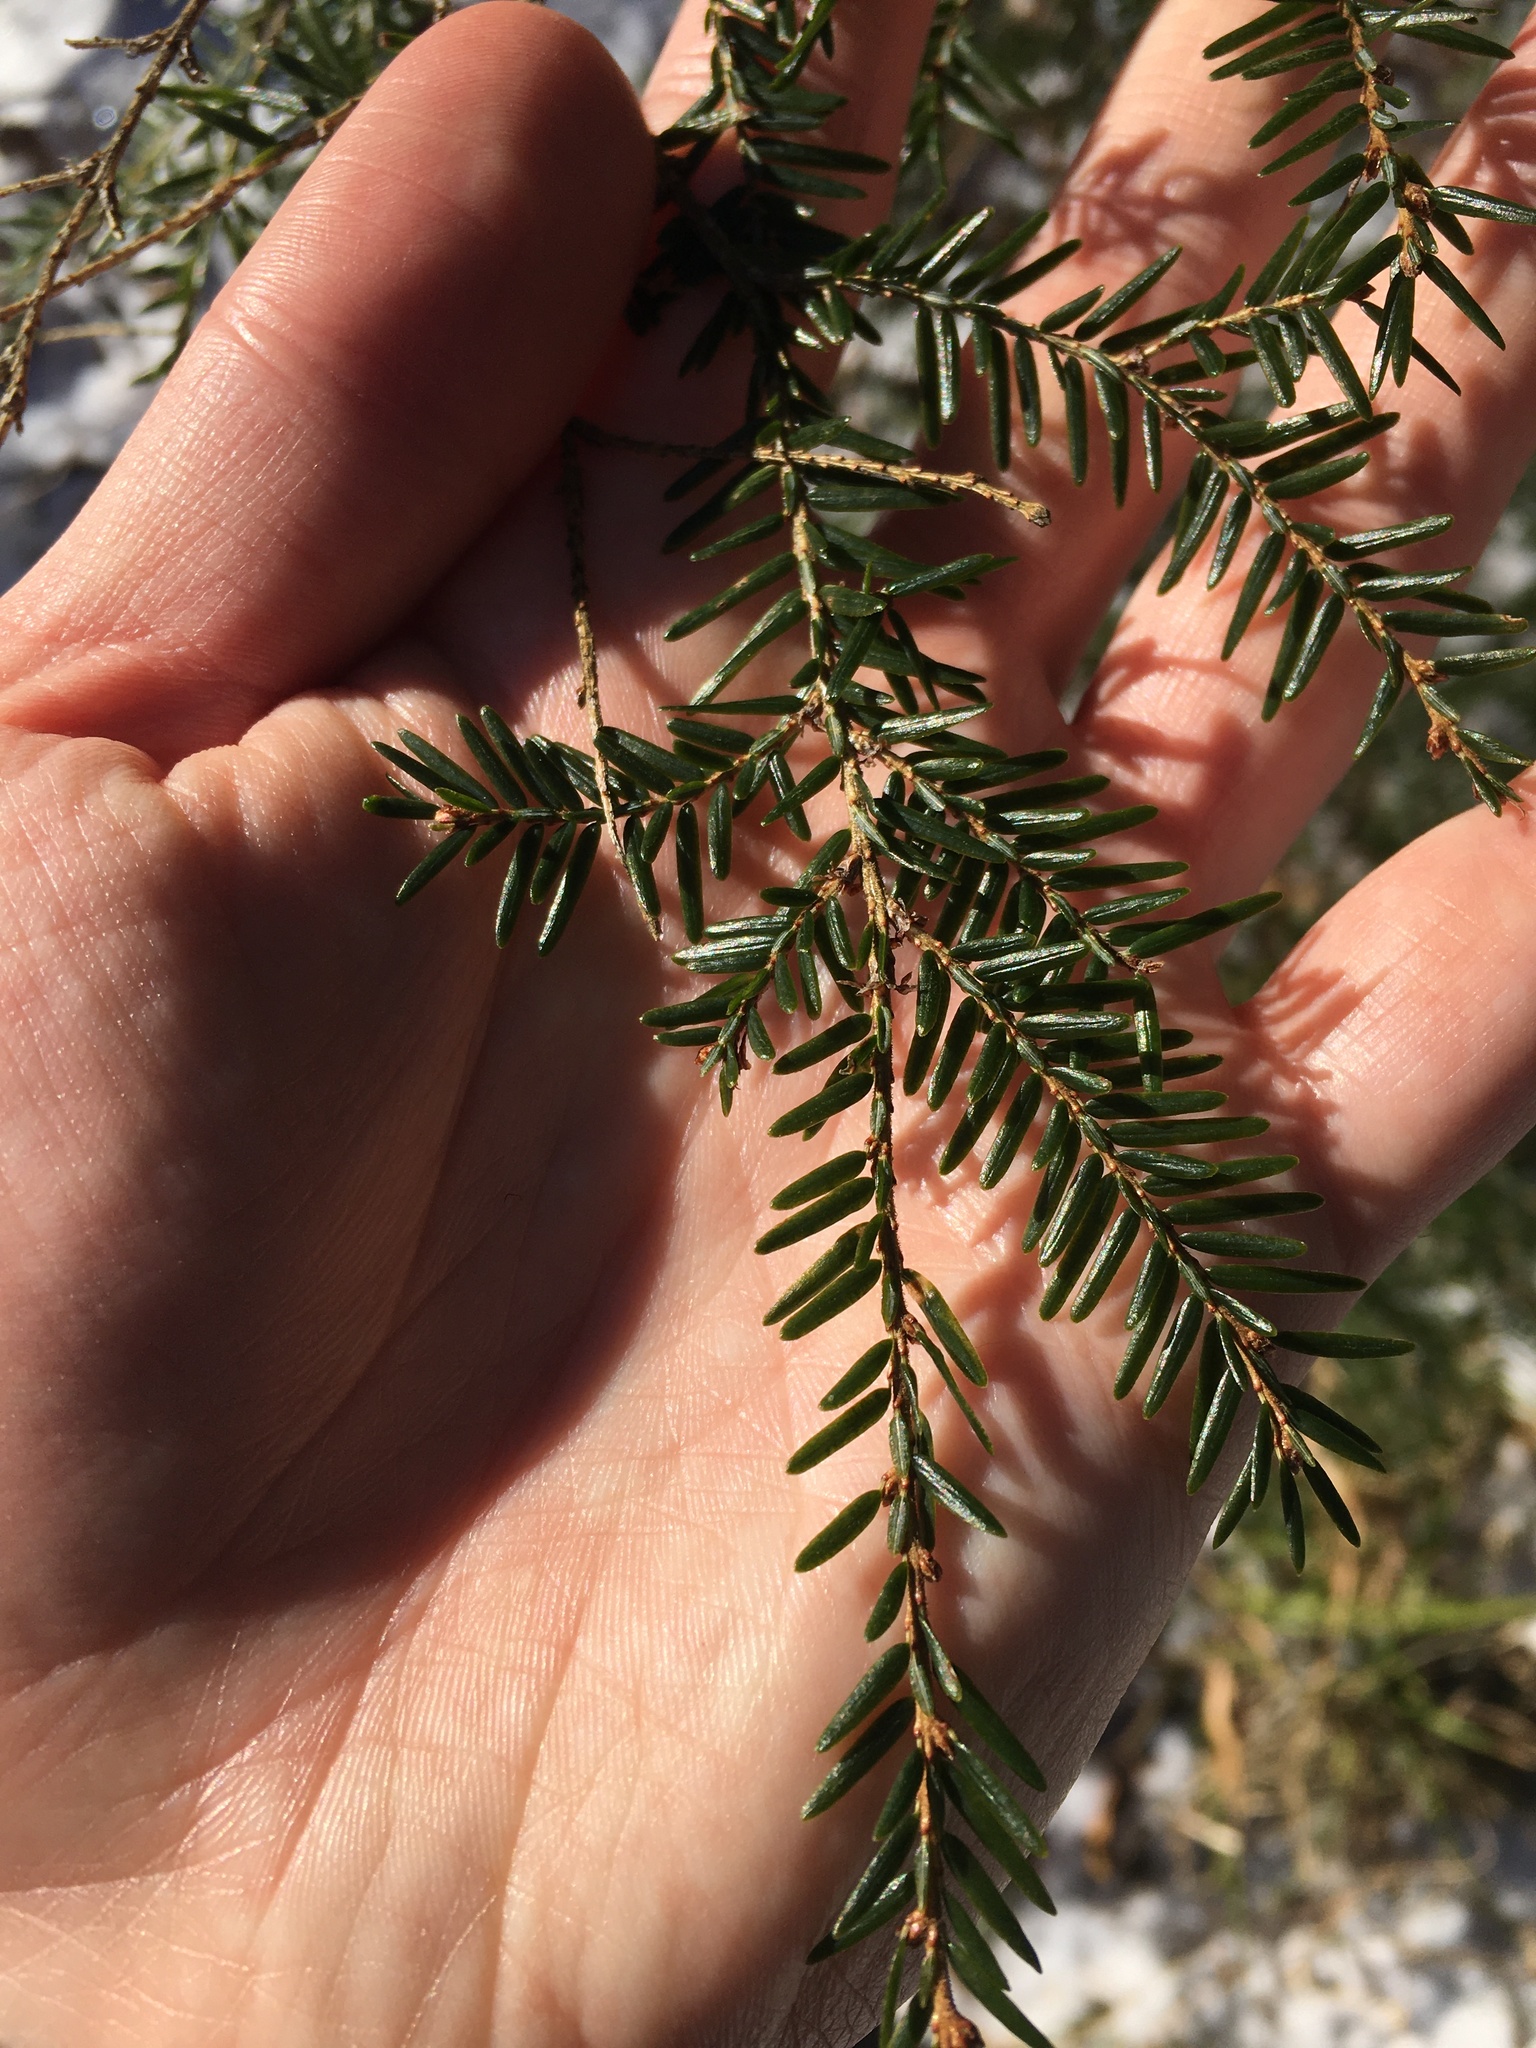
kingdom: Plantae
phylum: Tracheophyta
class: Pinopsida
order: Pinales
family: Pinaceae
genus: Tsuga
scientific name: Tsuga canadensis
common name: Eastern hemlock
